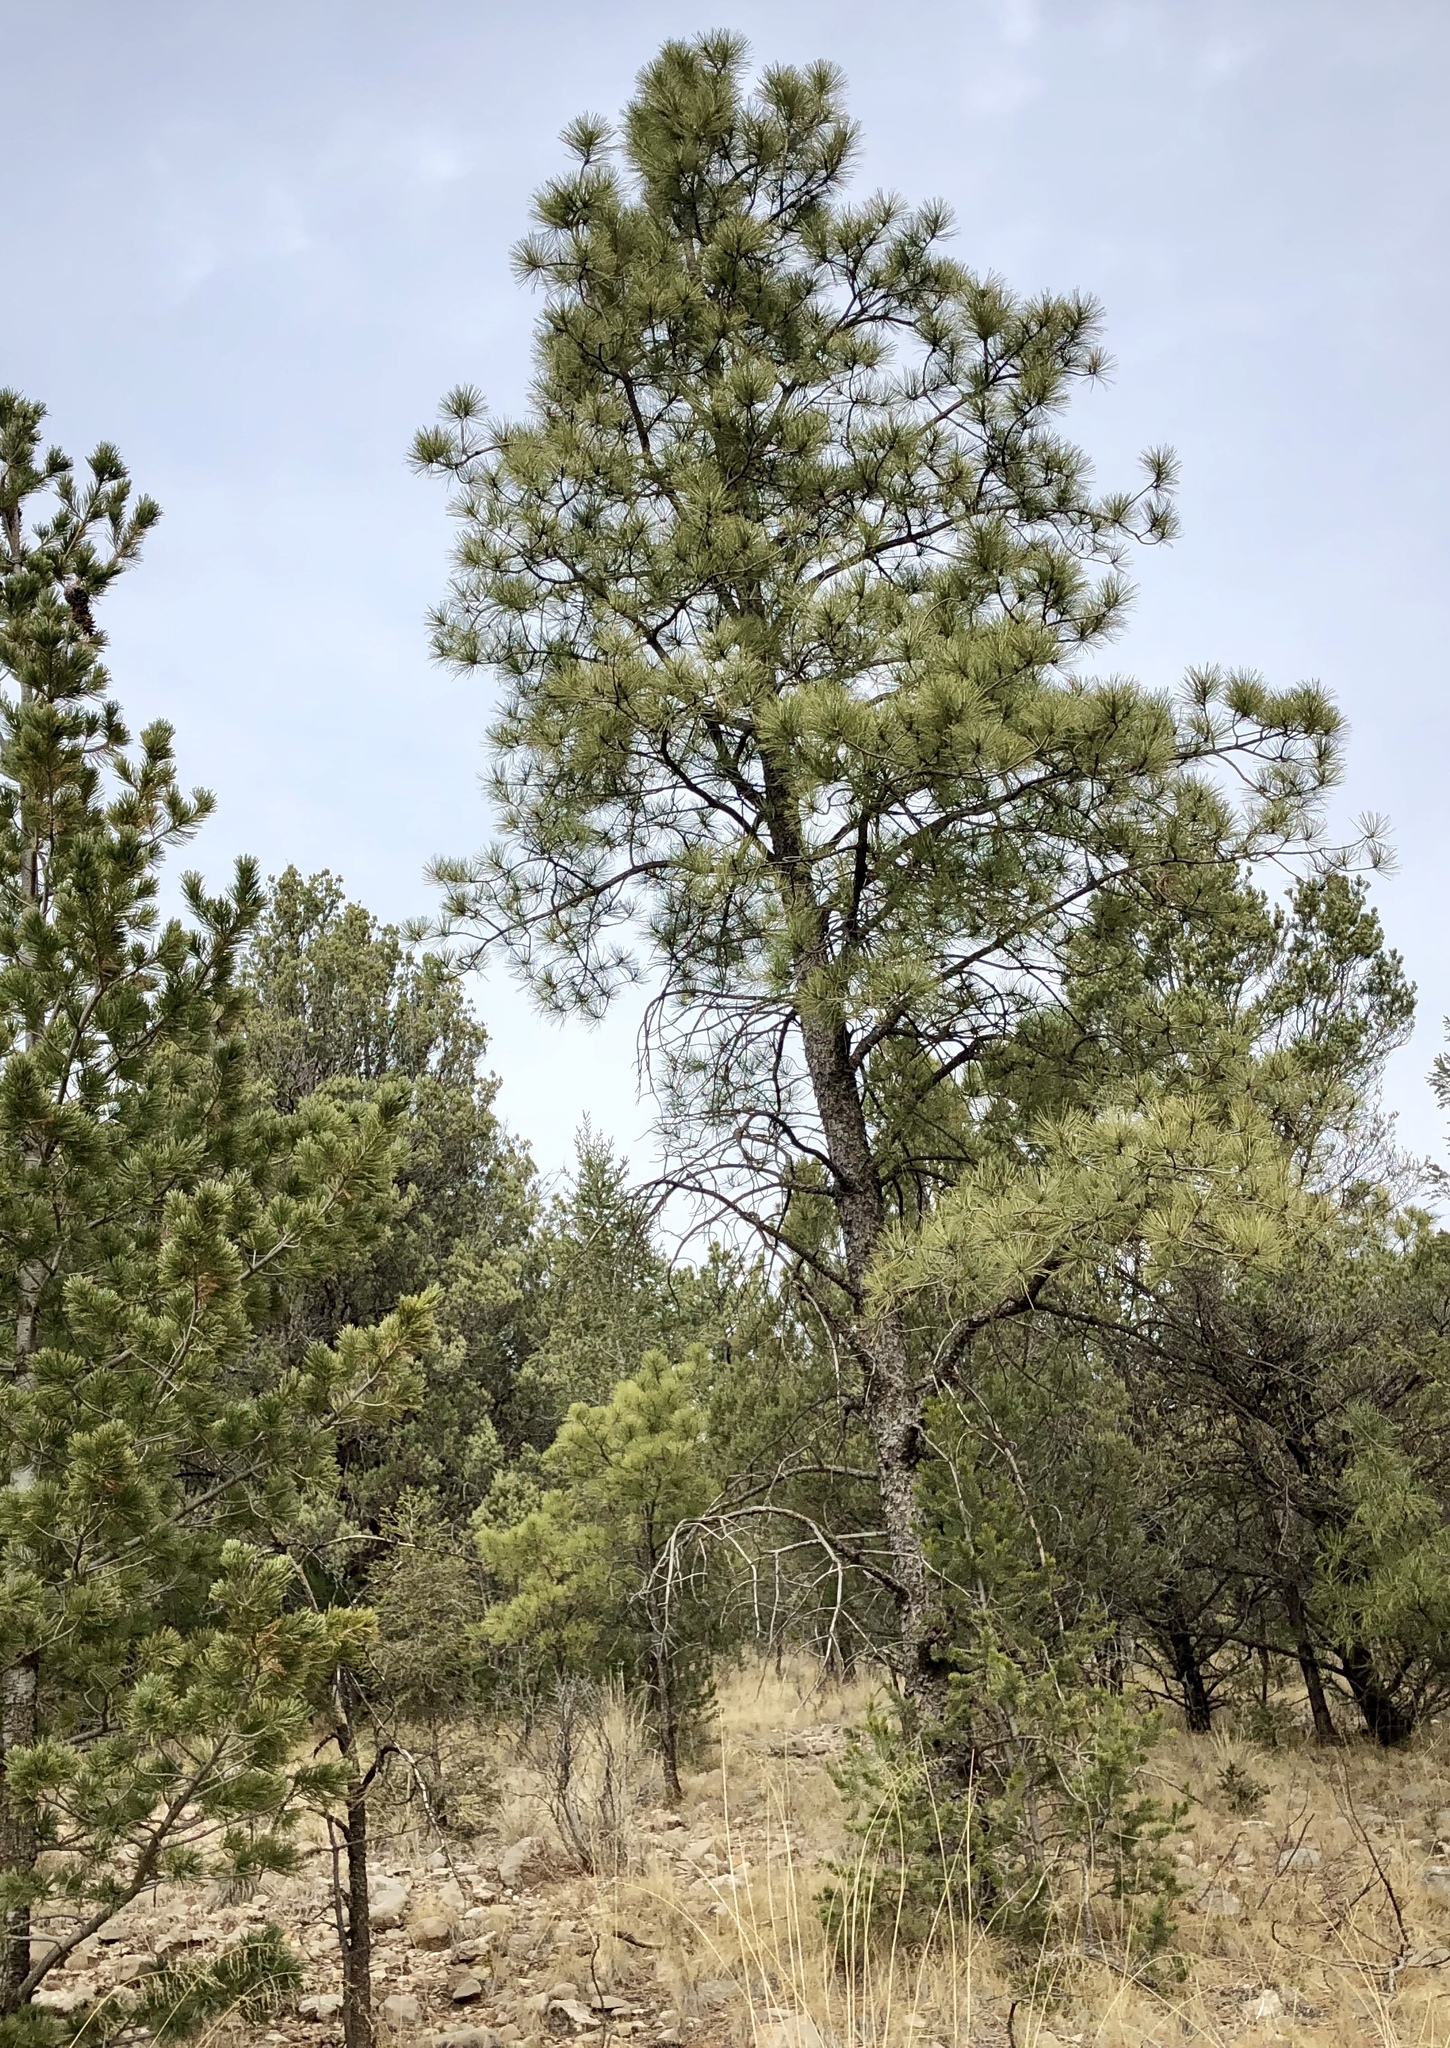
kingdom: Plantae
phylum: Tracheophyta
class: Pinopsida
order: Pinales
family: Pinaceae
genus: Pinus
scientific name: Pinus ponderosa
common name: Western yellow-pine
